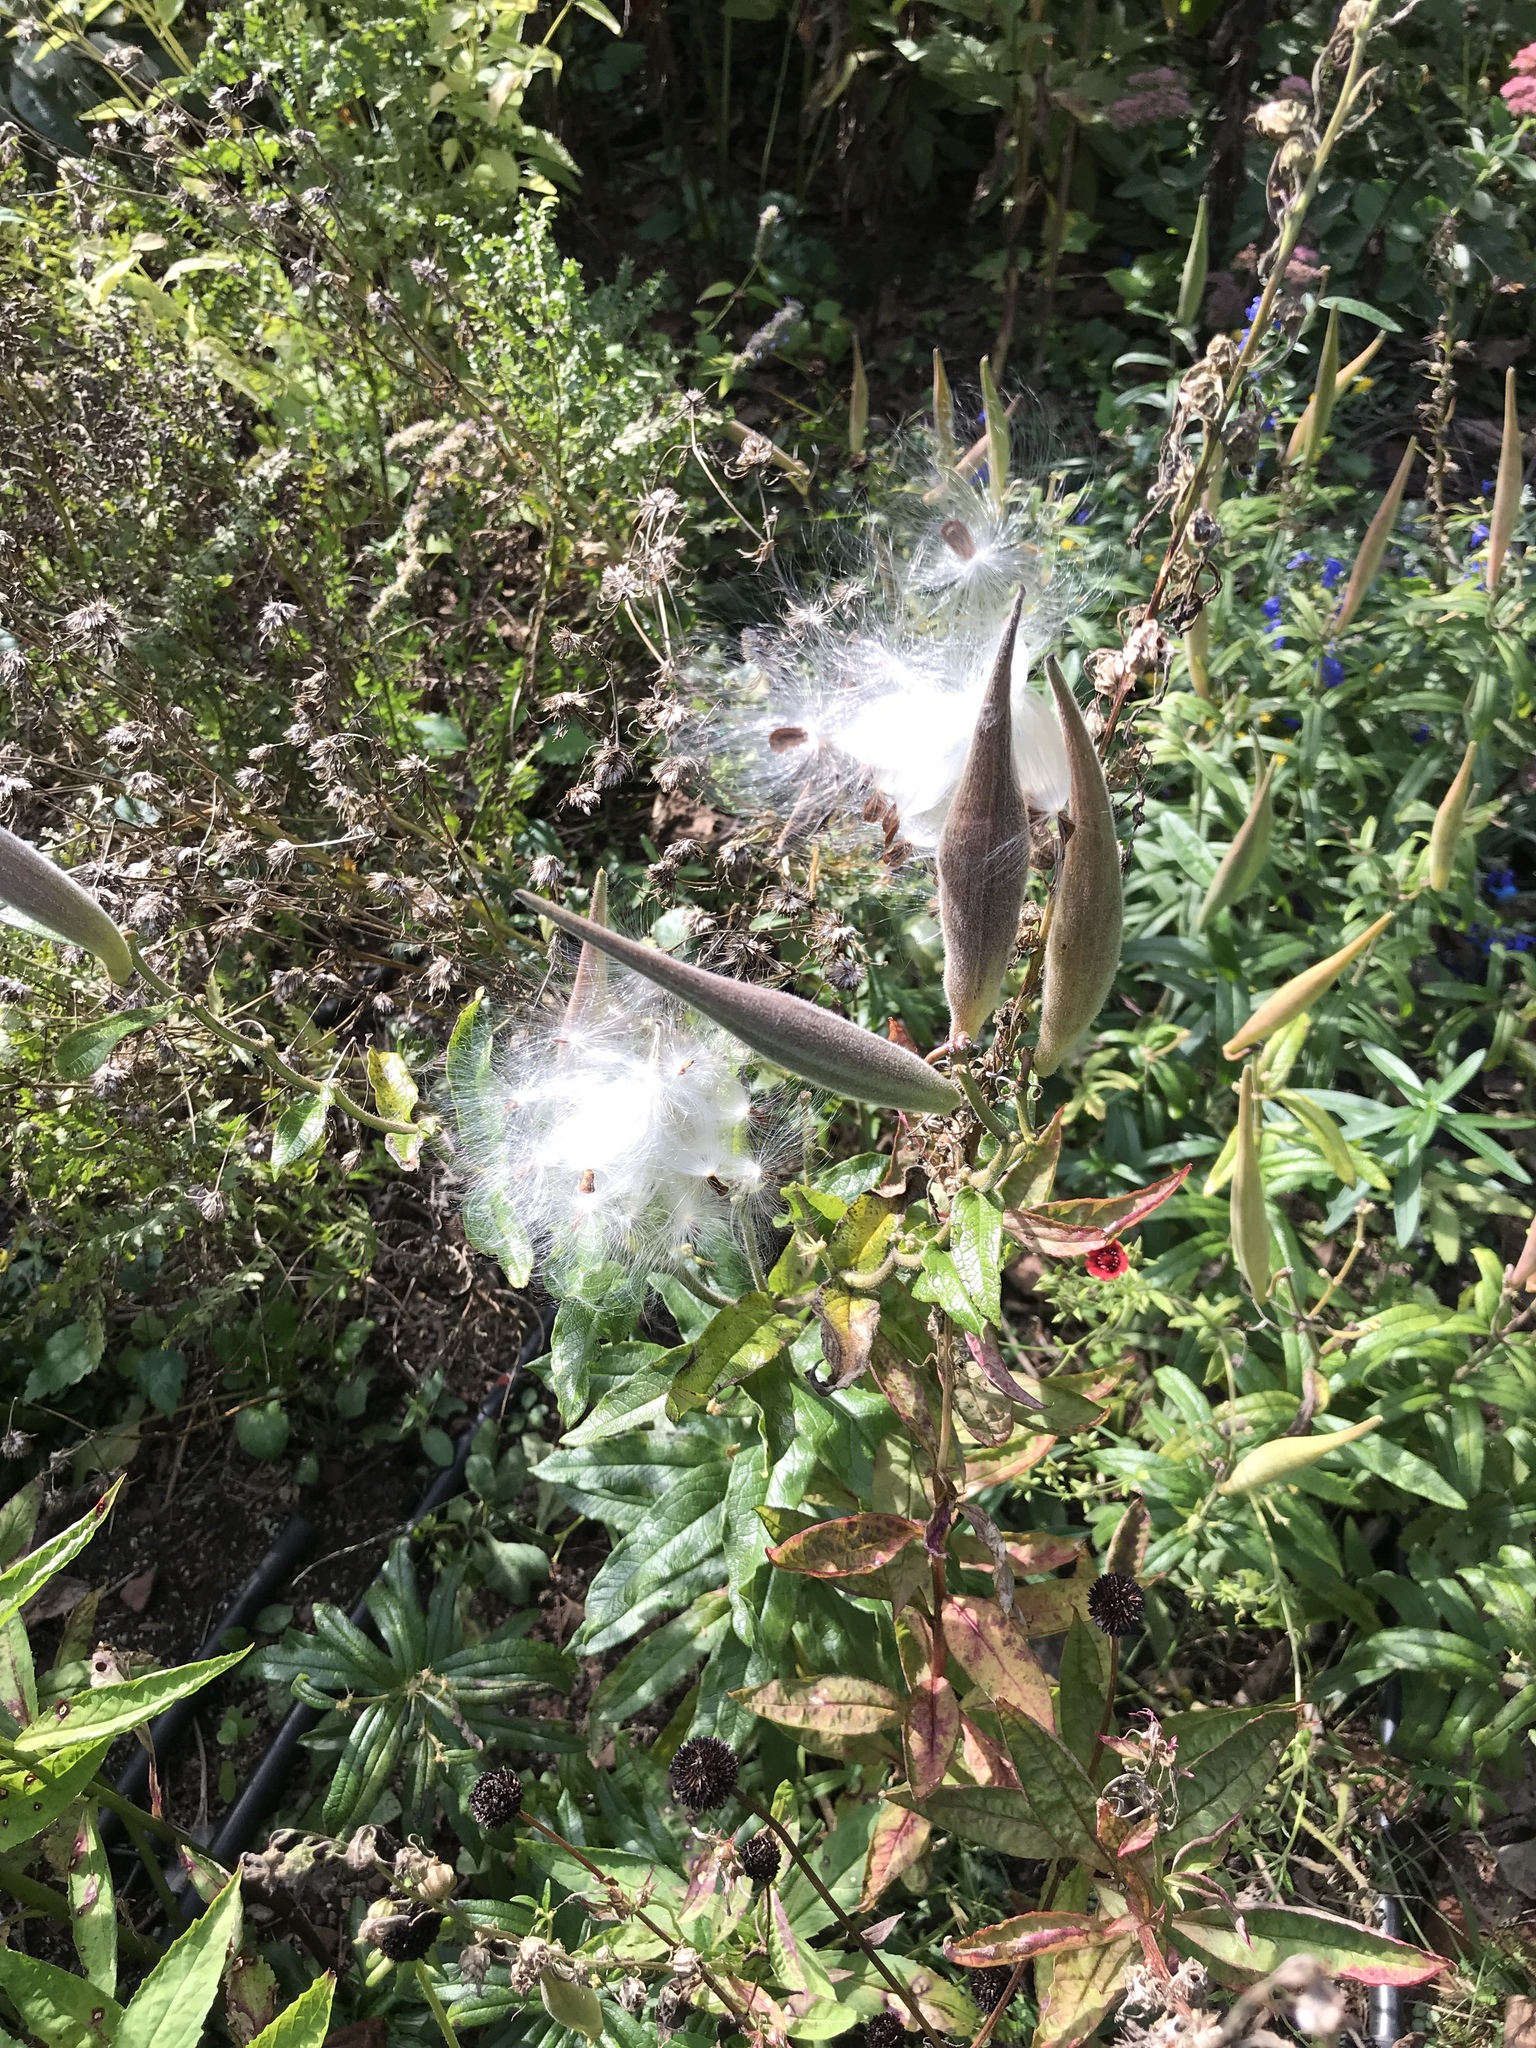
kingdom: Plantae
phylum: Tracheophyta
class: Magnoliopsida
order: Gentianales
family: Apocynaceae
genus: Asclepias
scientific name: Asclepias tuberosa
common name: Butterfly milkweed
